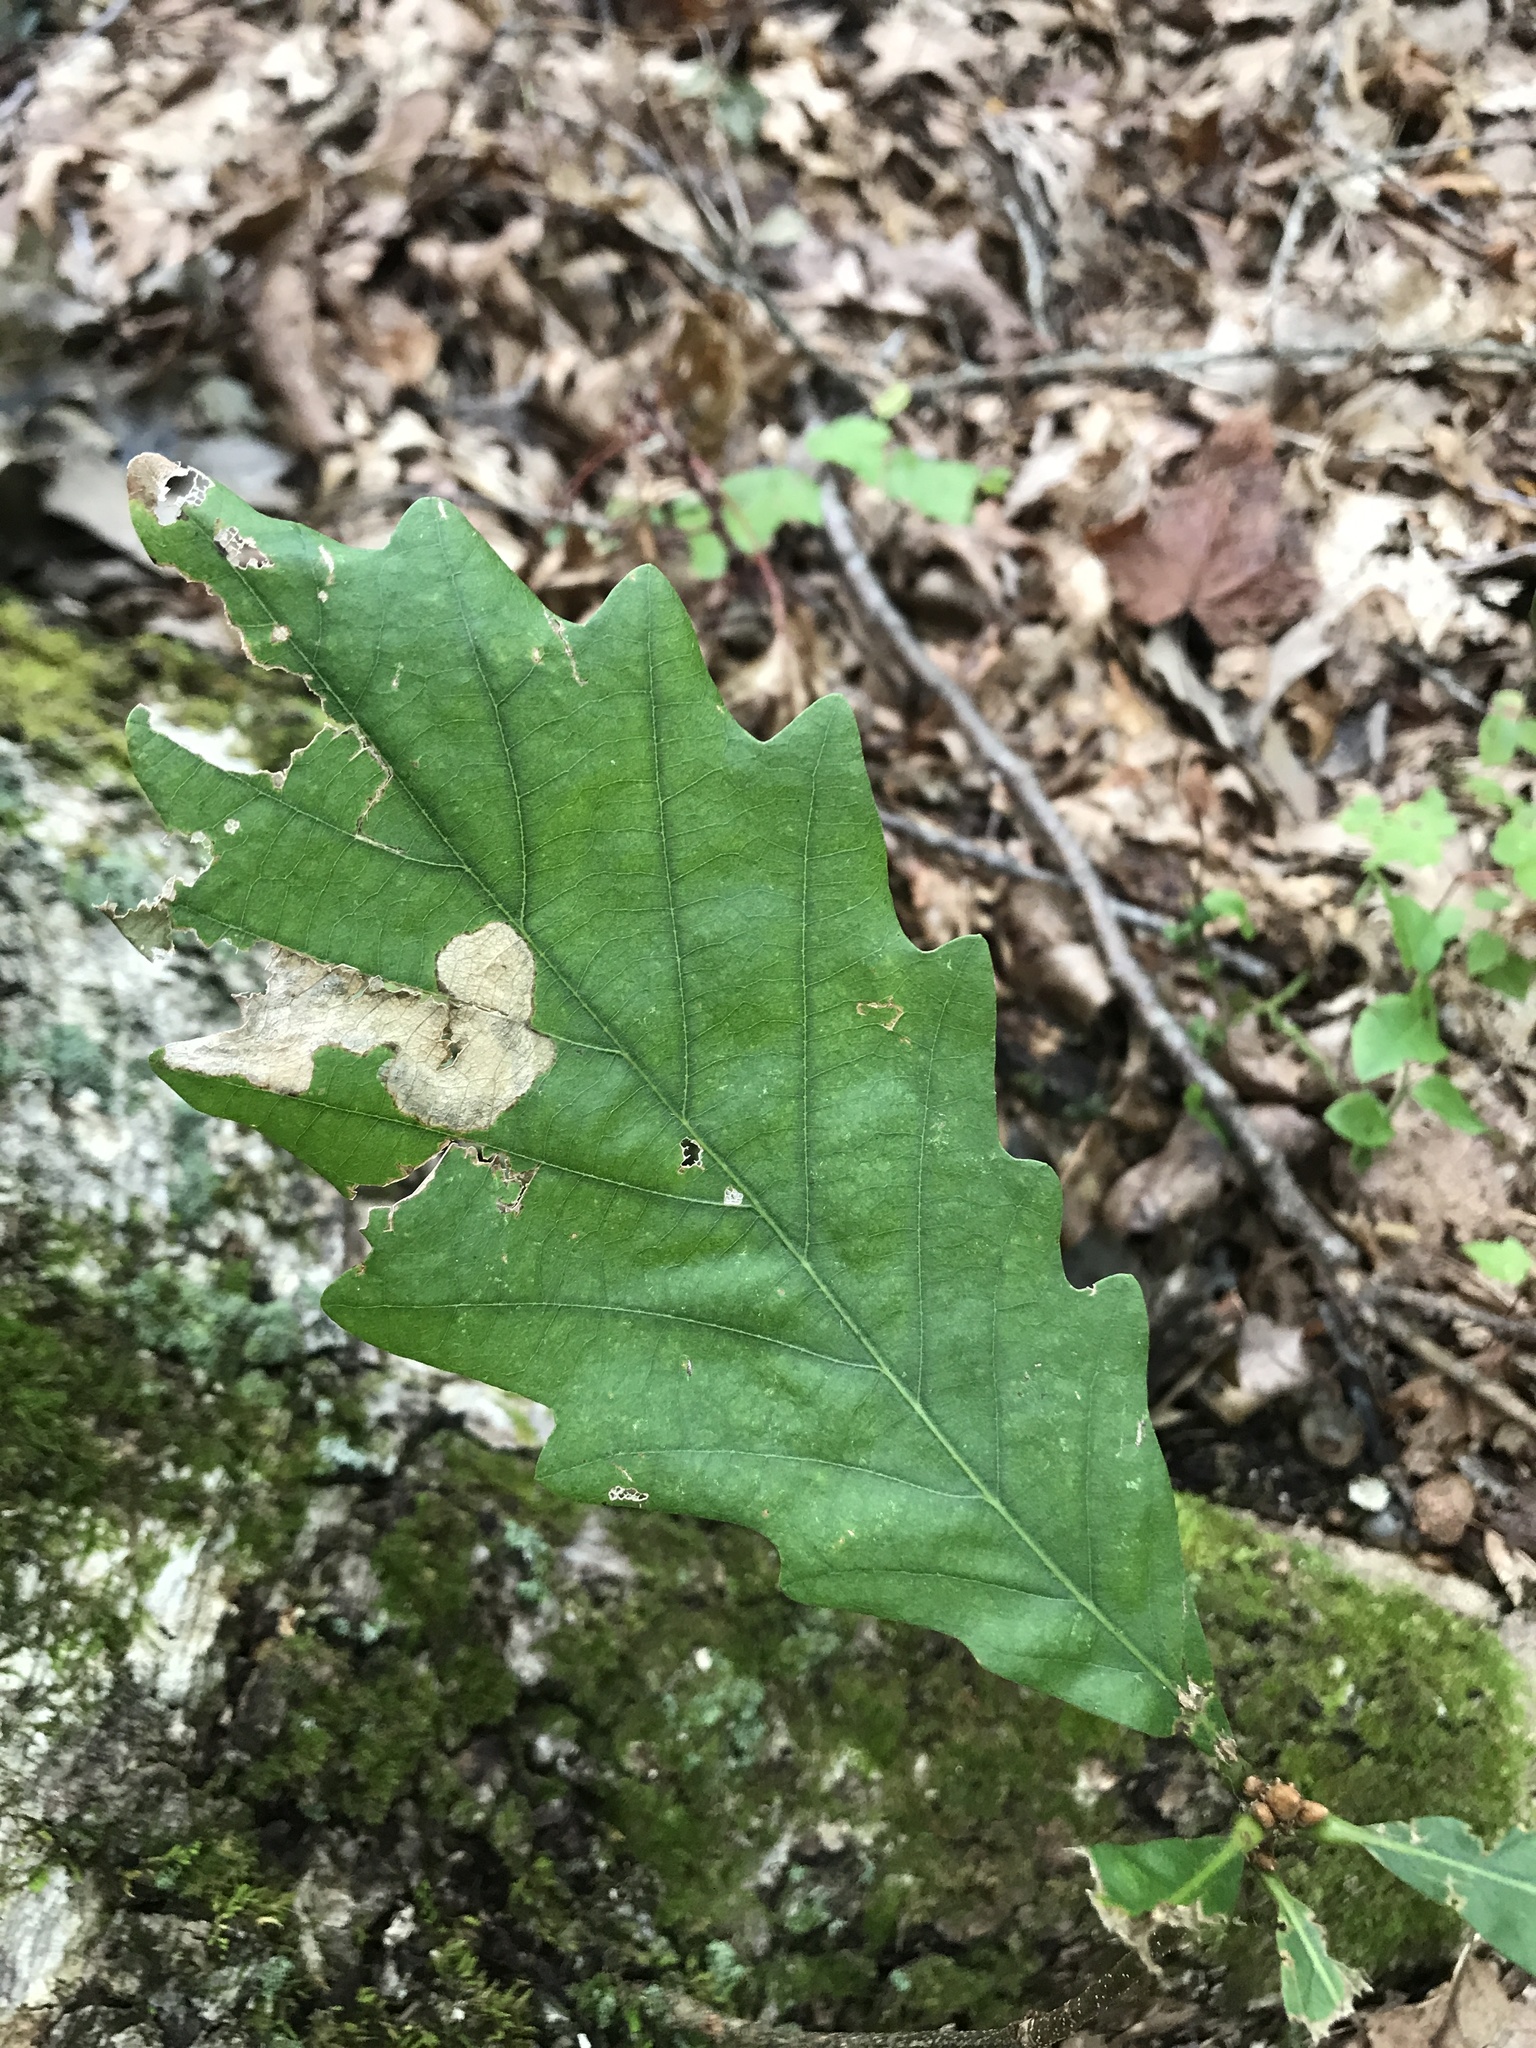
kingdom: Plantae
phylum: Tracheophyta
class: Magnoliopsida
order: Fagales
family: Fagaceae
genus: Quercus
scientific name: Quercus montana
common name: Chestnut oak
